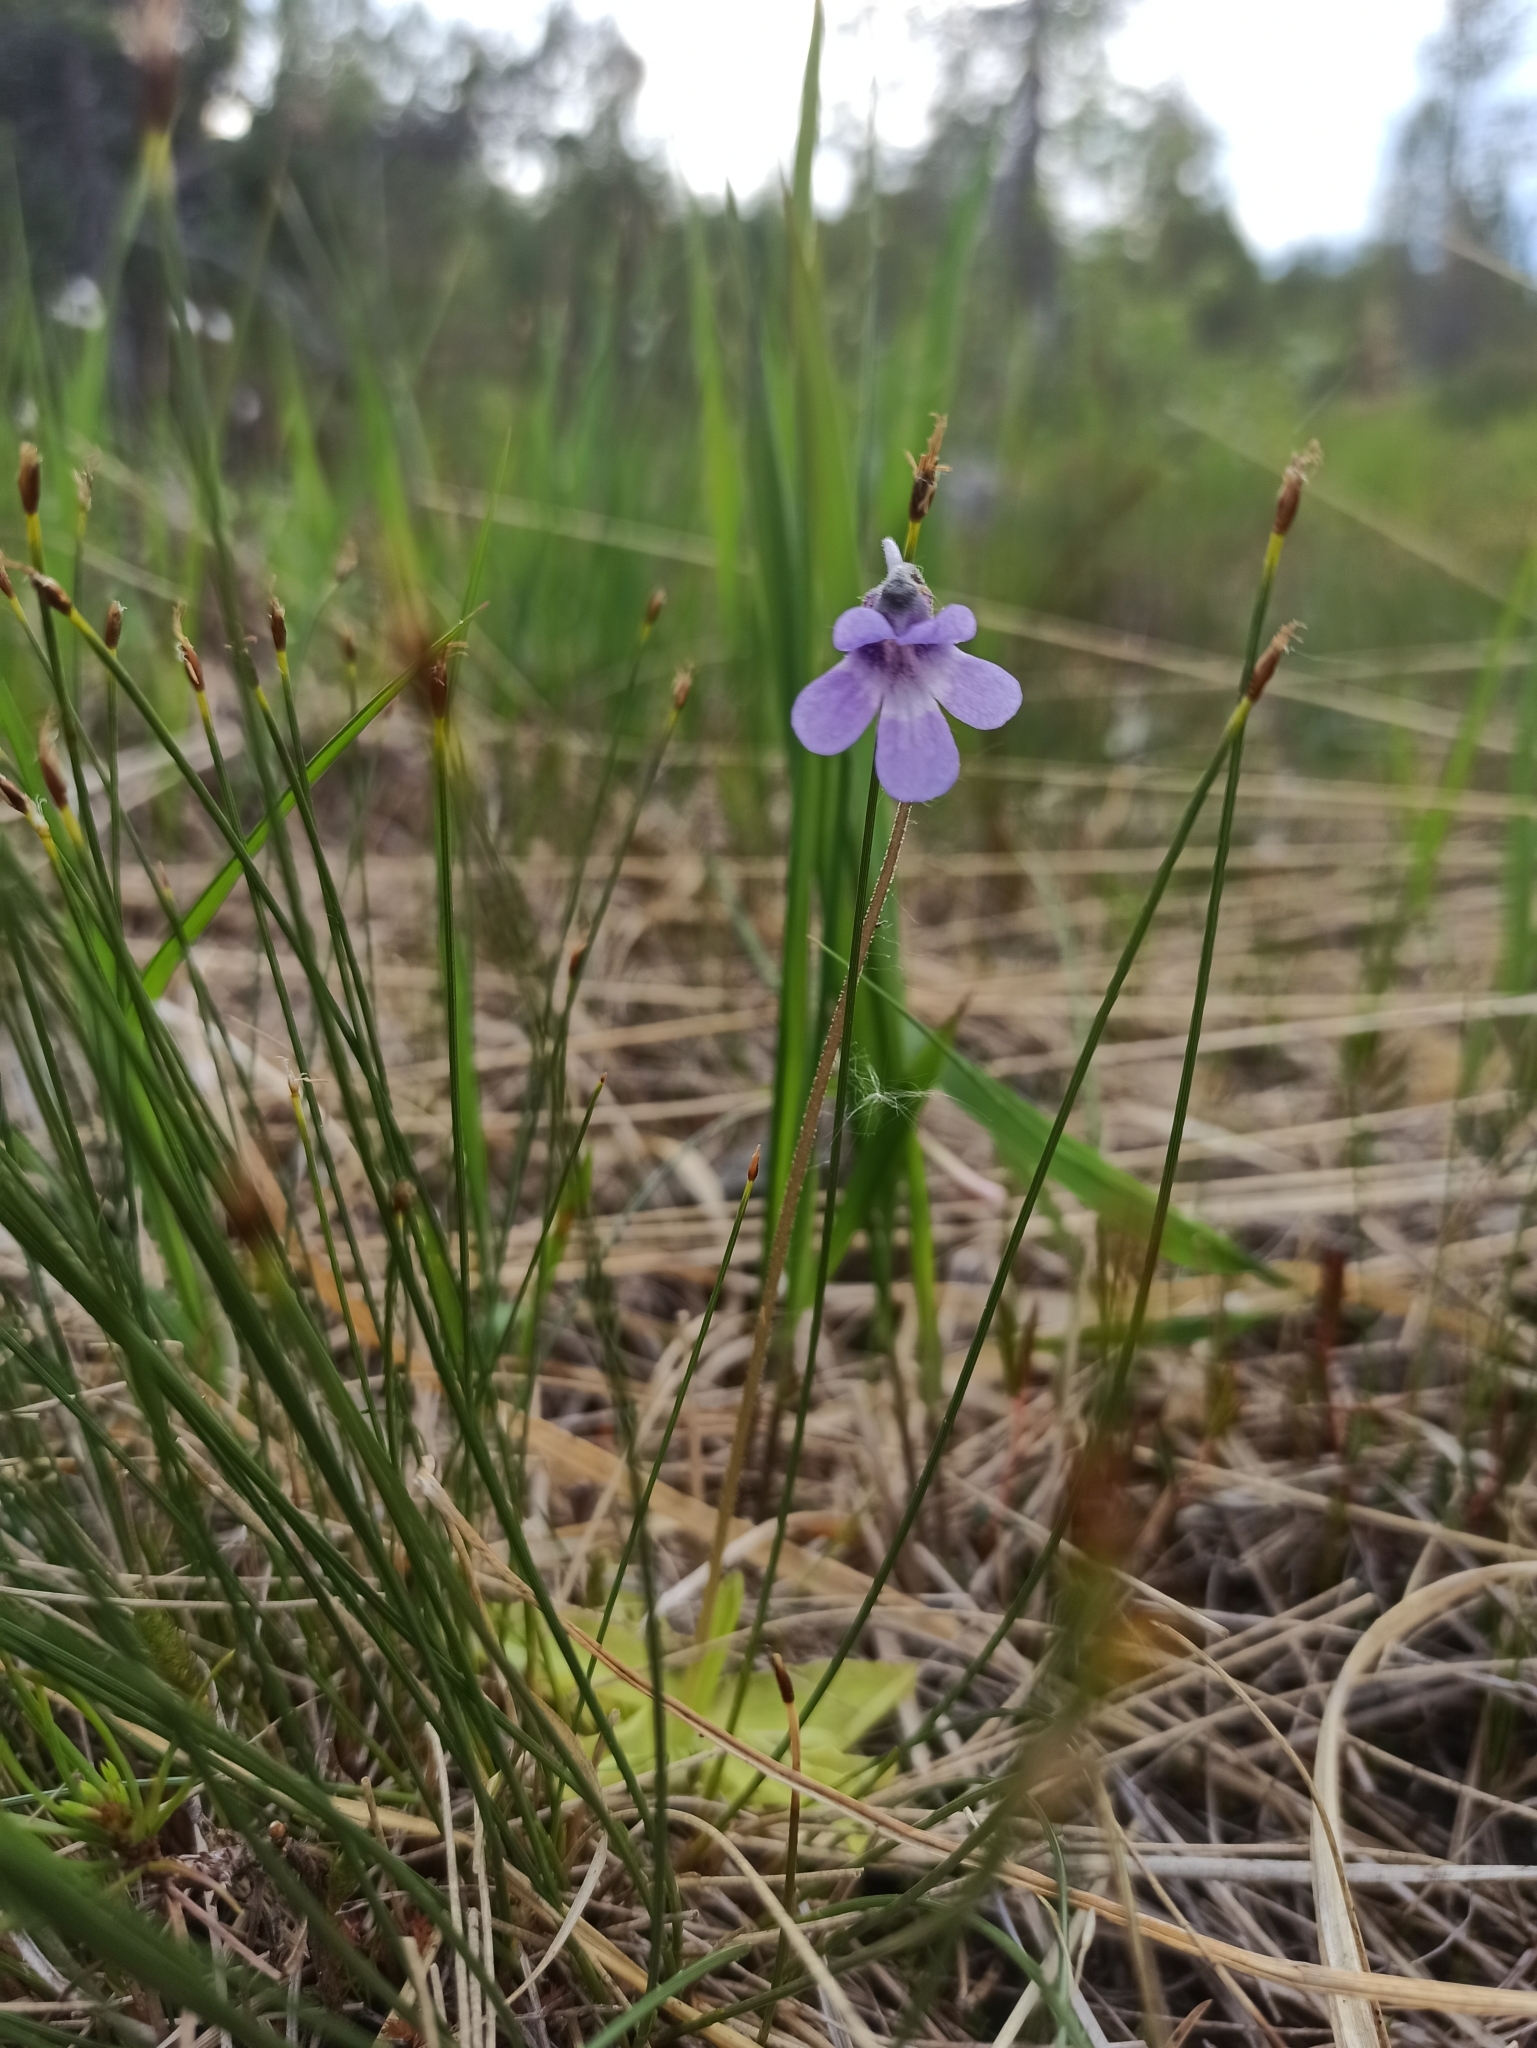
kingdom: Plantae
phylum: Tracheophyta
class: Magnoliopsida
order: Lamiales
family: Lentibulariaceae
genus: Pinguicula
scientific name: Pinguicula vulgaris
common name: Common butterwort
